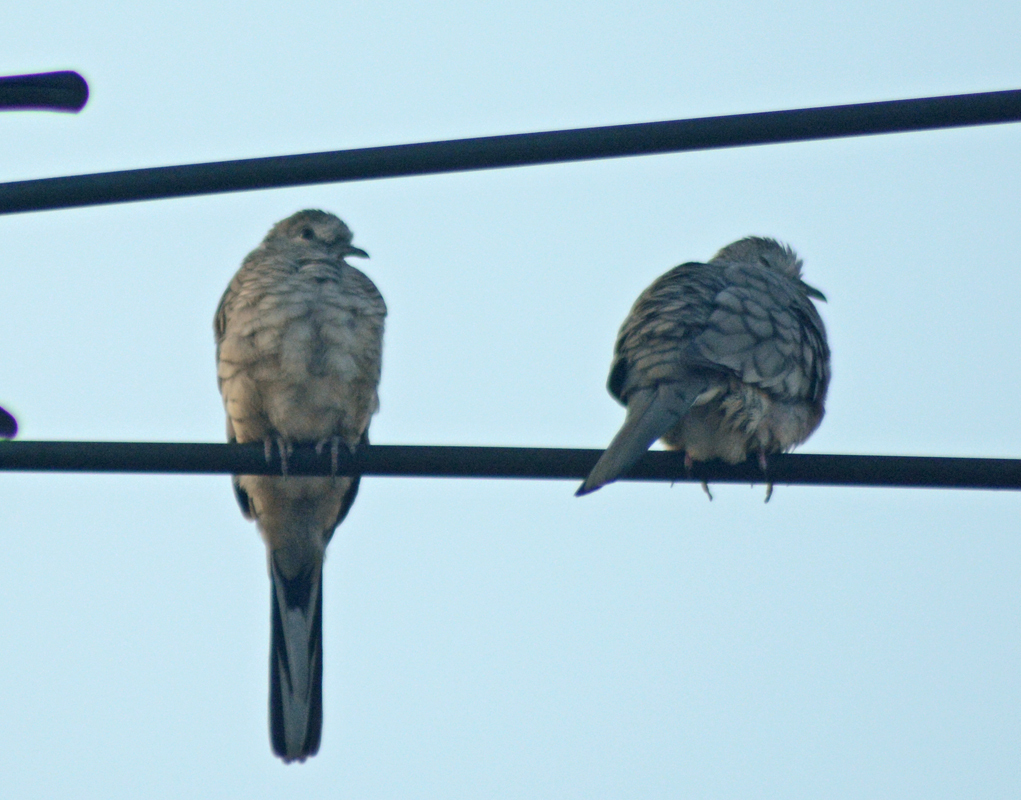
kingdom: Animalia
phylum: Chordata
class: Aves
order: Columbiformes
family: Columbidae
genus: Columbina
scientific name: Columbina inca
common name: Inca dove
